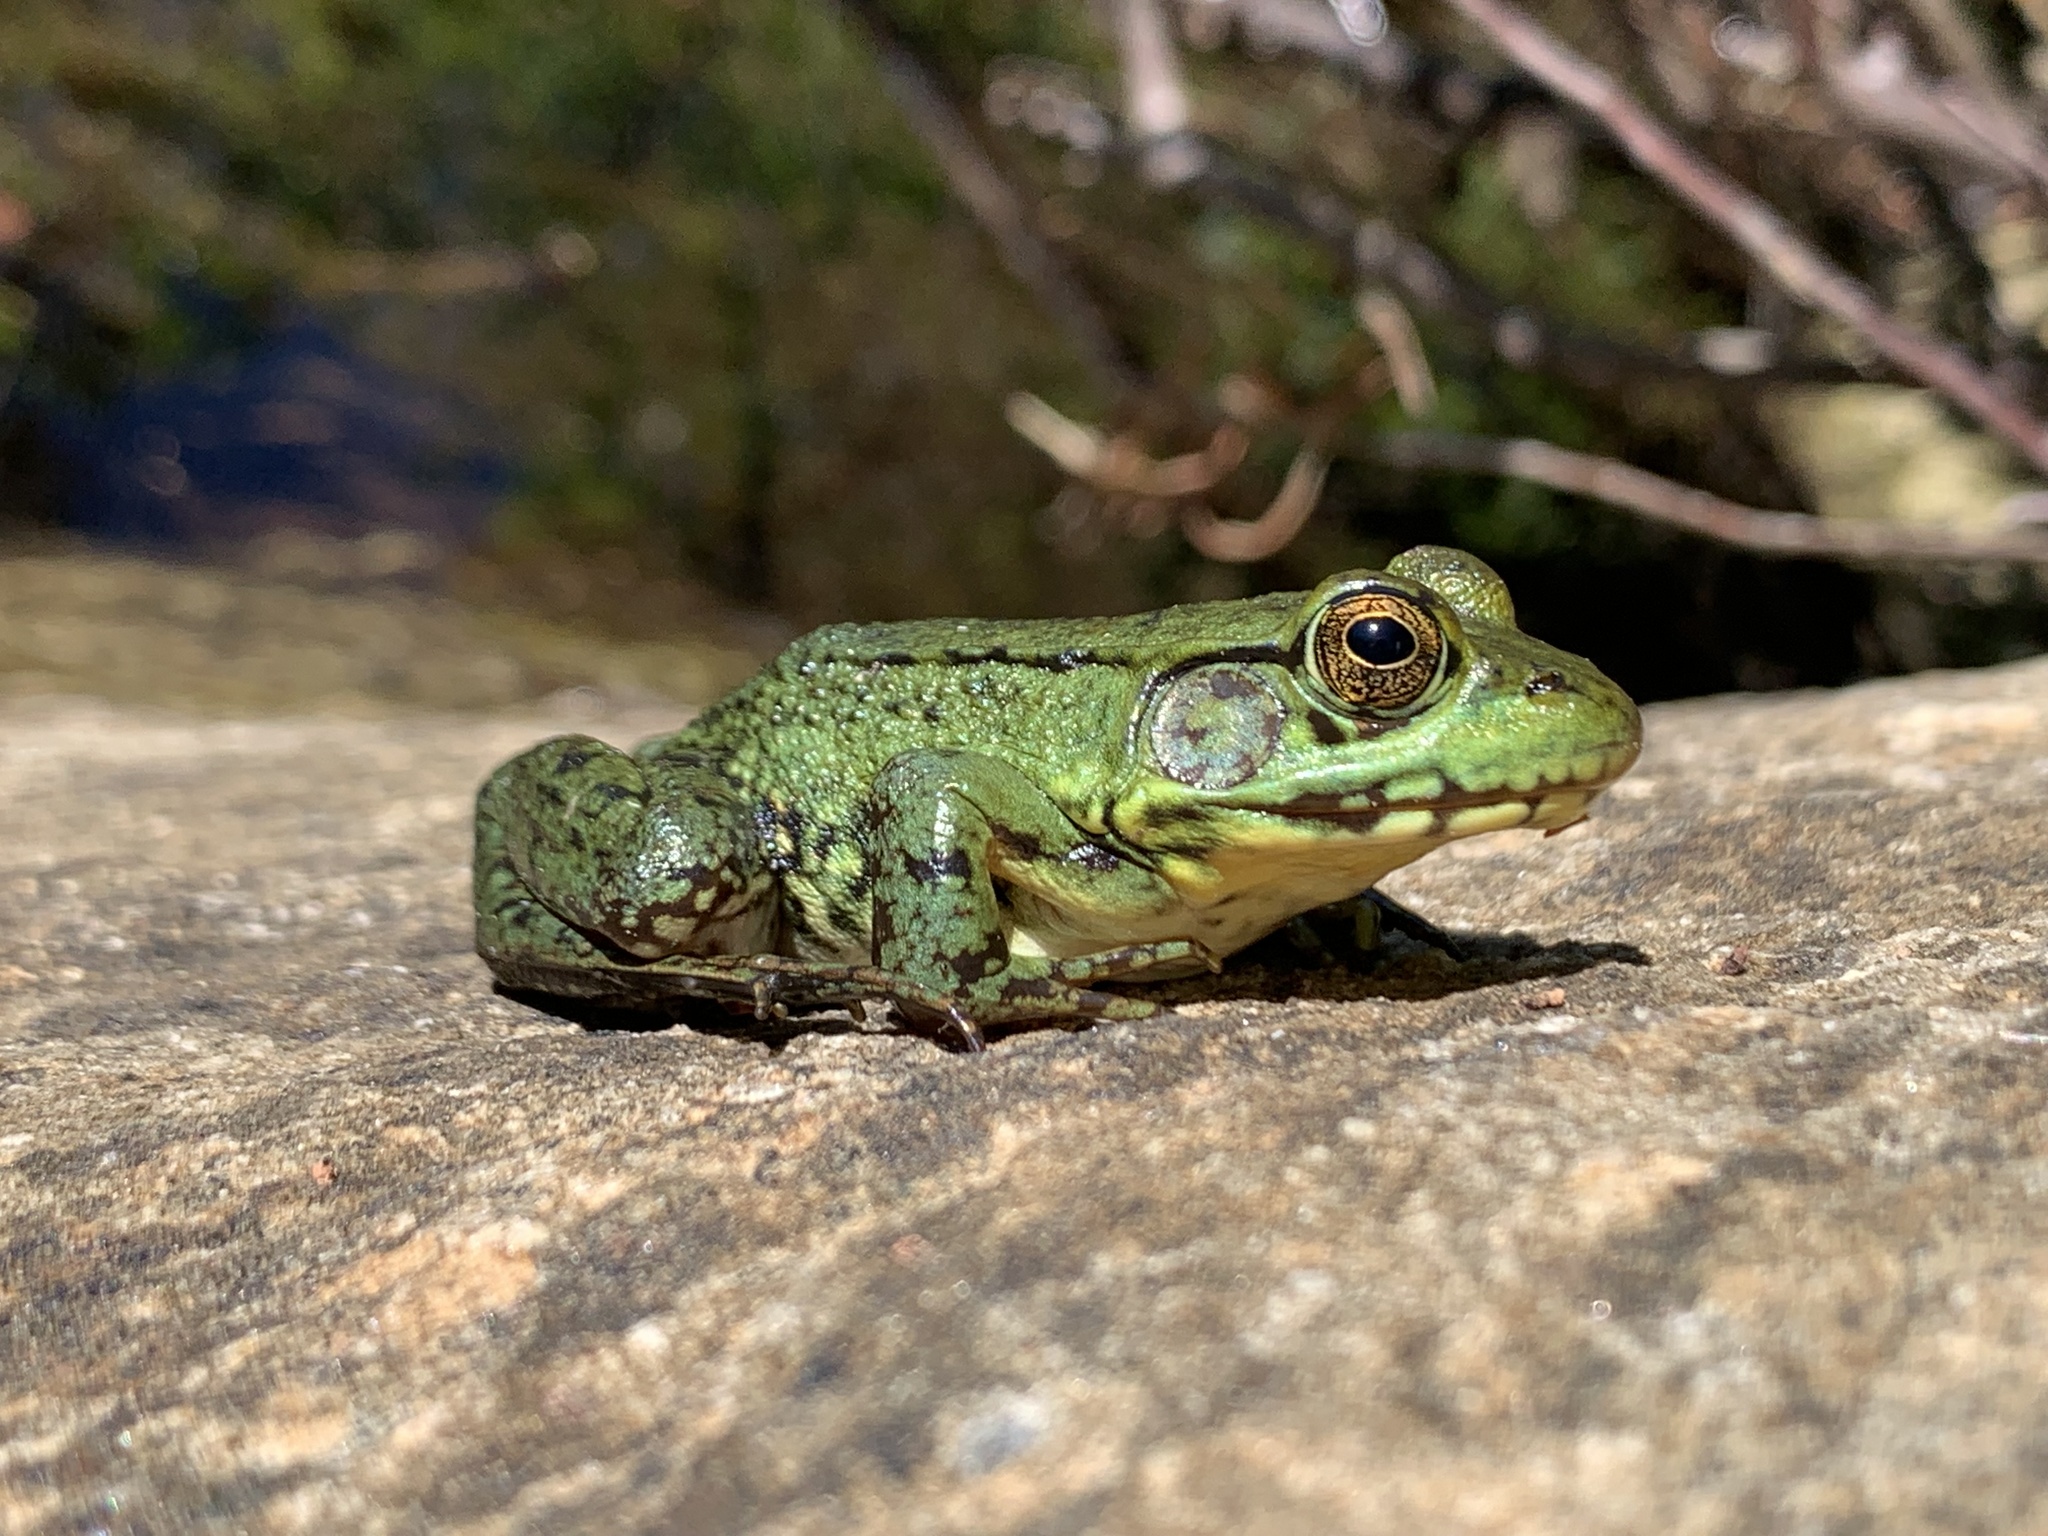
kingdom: Animalia
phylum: Chordata
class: Amphibia
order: Anura
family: Ranidae
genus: Lithobates
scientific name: Lithobates clamitans
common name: Green frog
